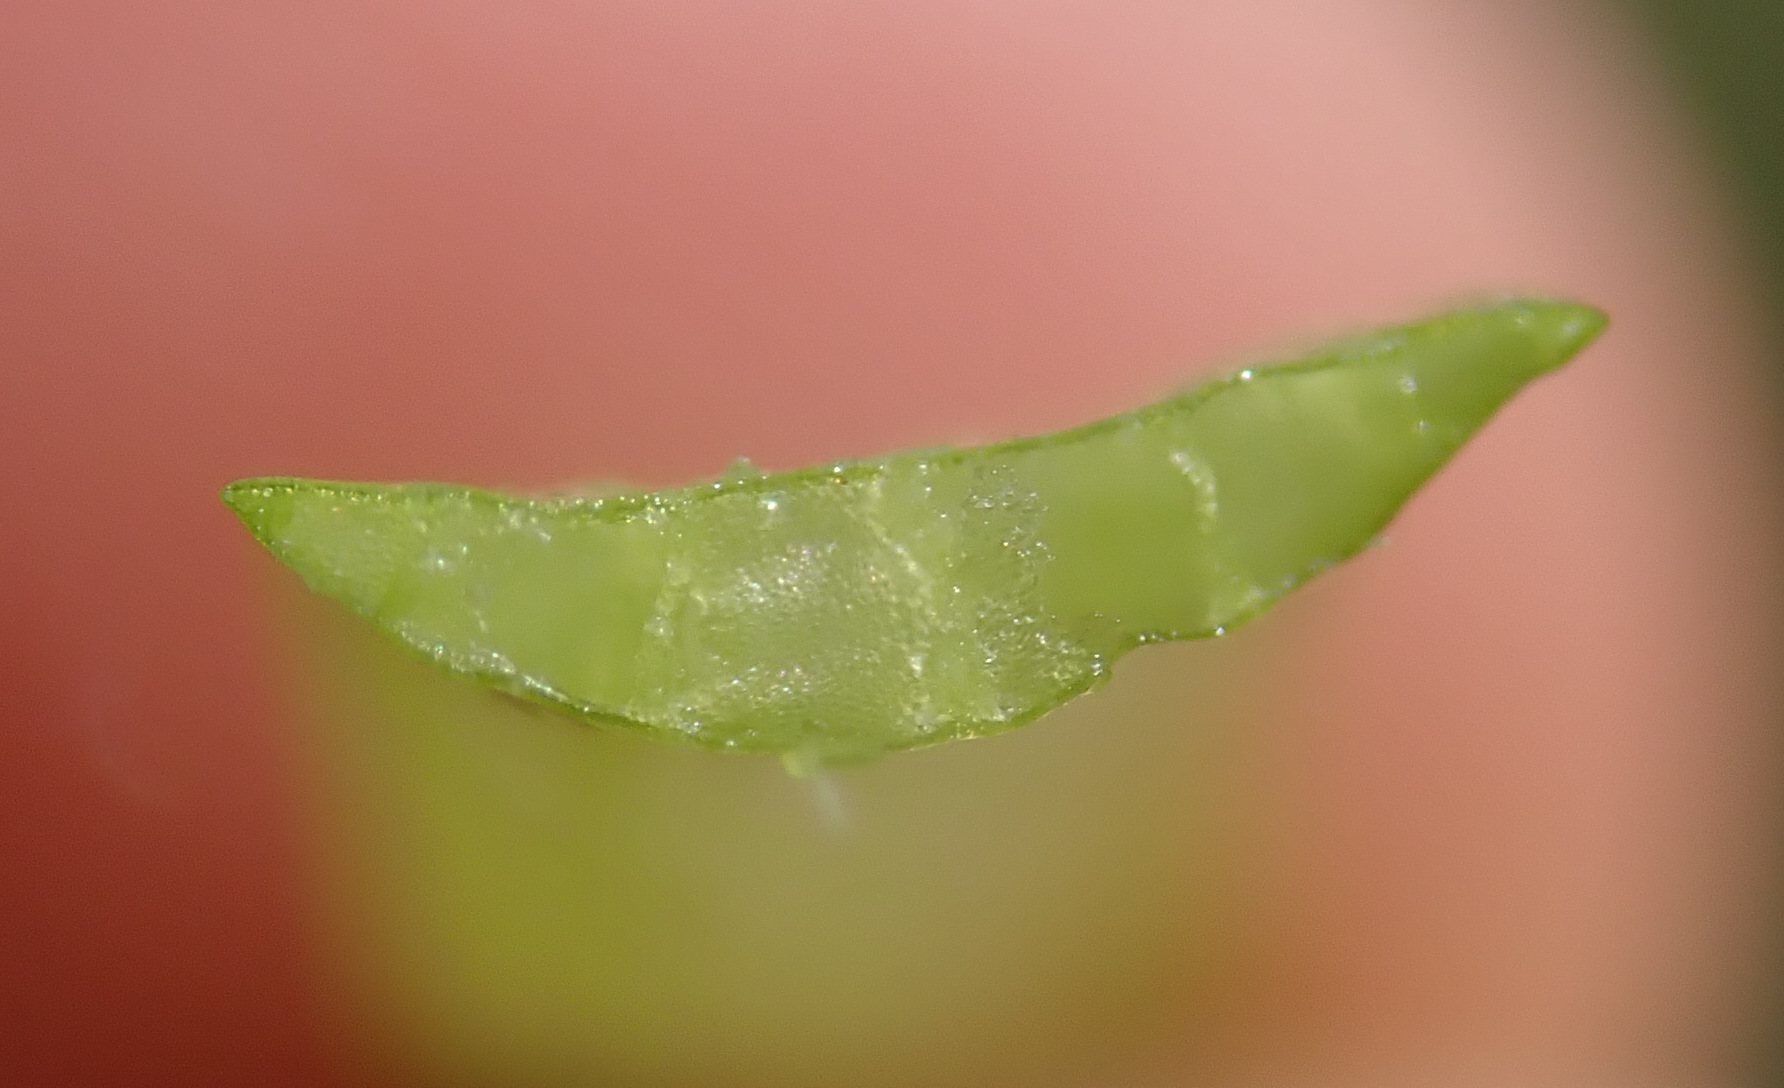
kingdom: Plantae
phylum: Tracheophyta
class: Liliopsida
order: Poales
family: Typhaceae
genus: Sparganium
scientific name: Sparganium natans
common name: Least bur-reed
